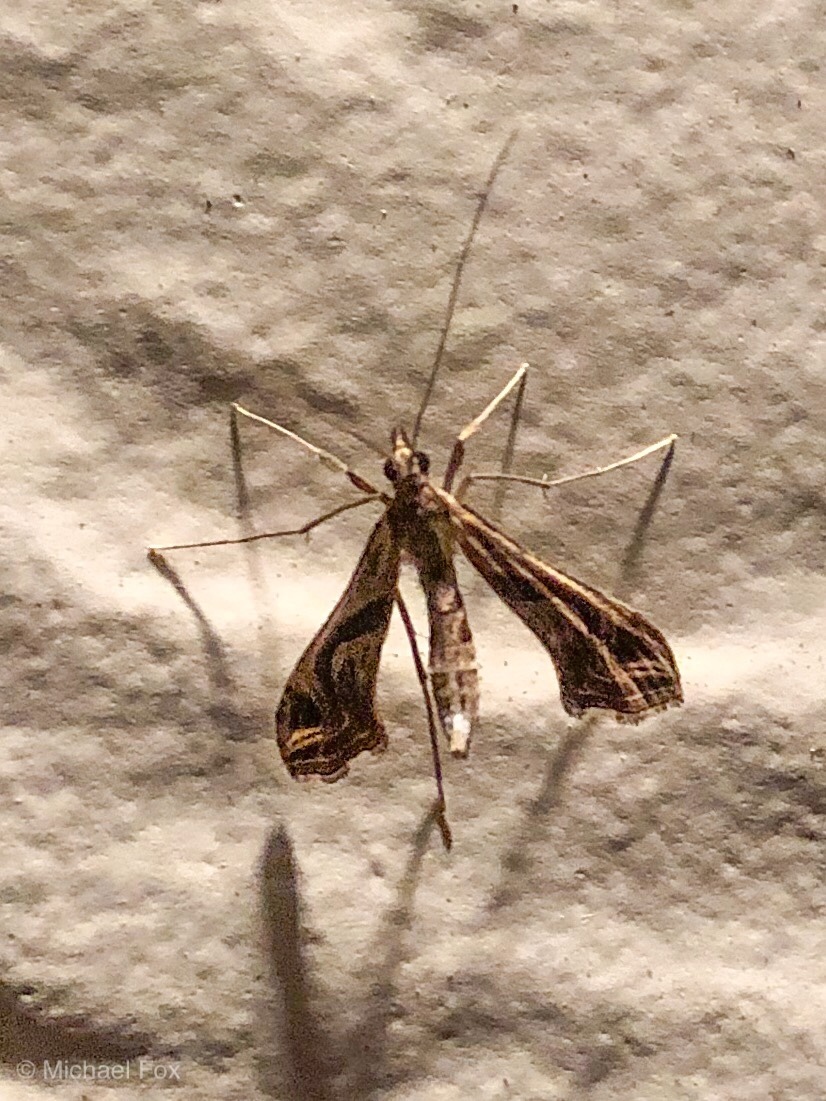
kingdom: Animalia
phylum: Arthropoda
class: Insecta
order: Lepidoptera
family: Crambidae
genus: Lineodes
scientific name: Lineodes integra
